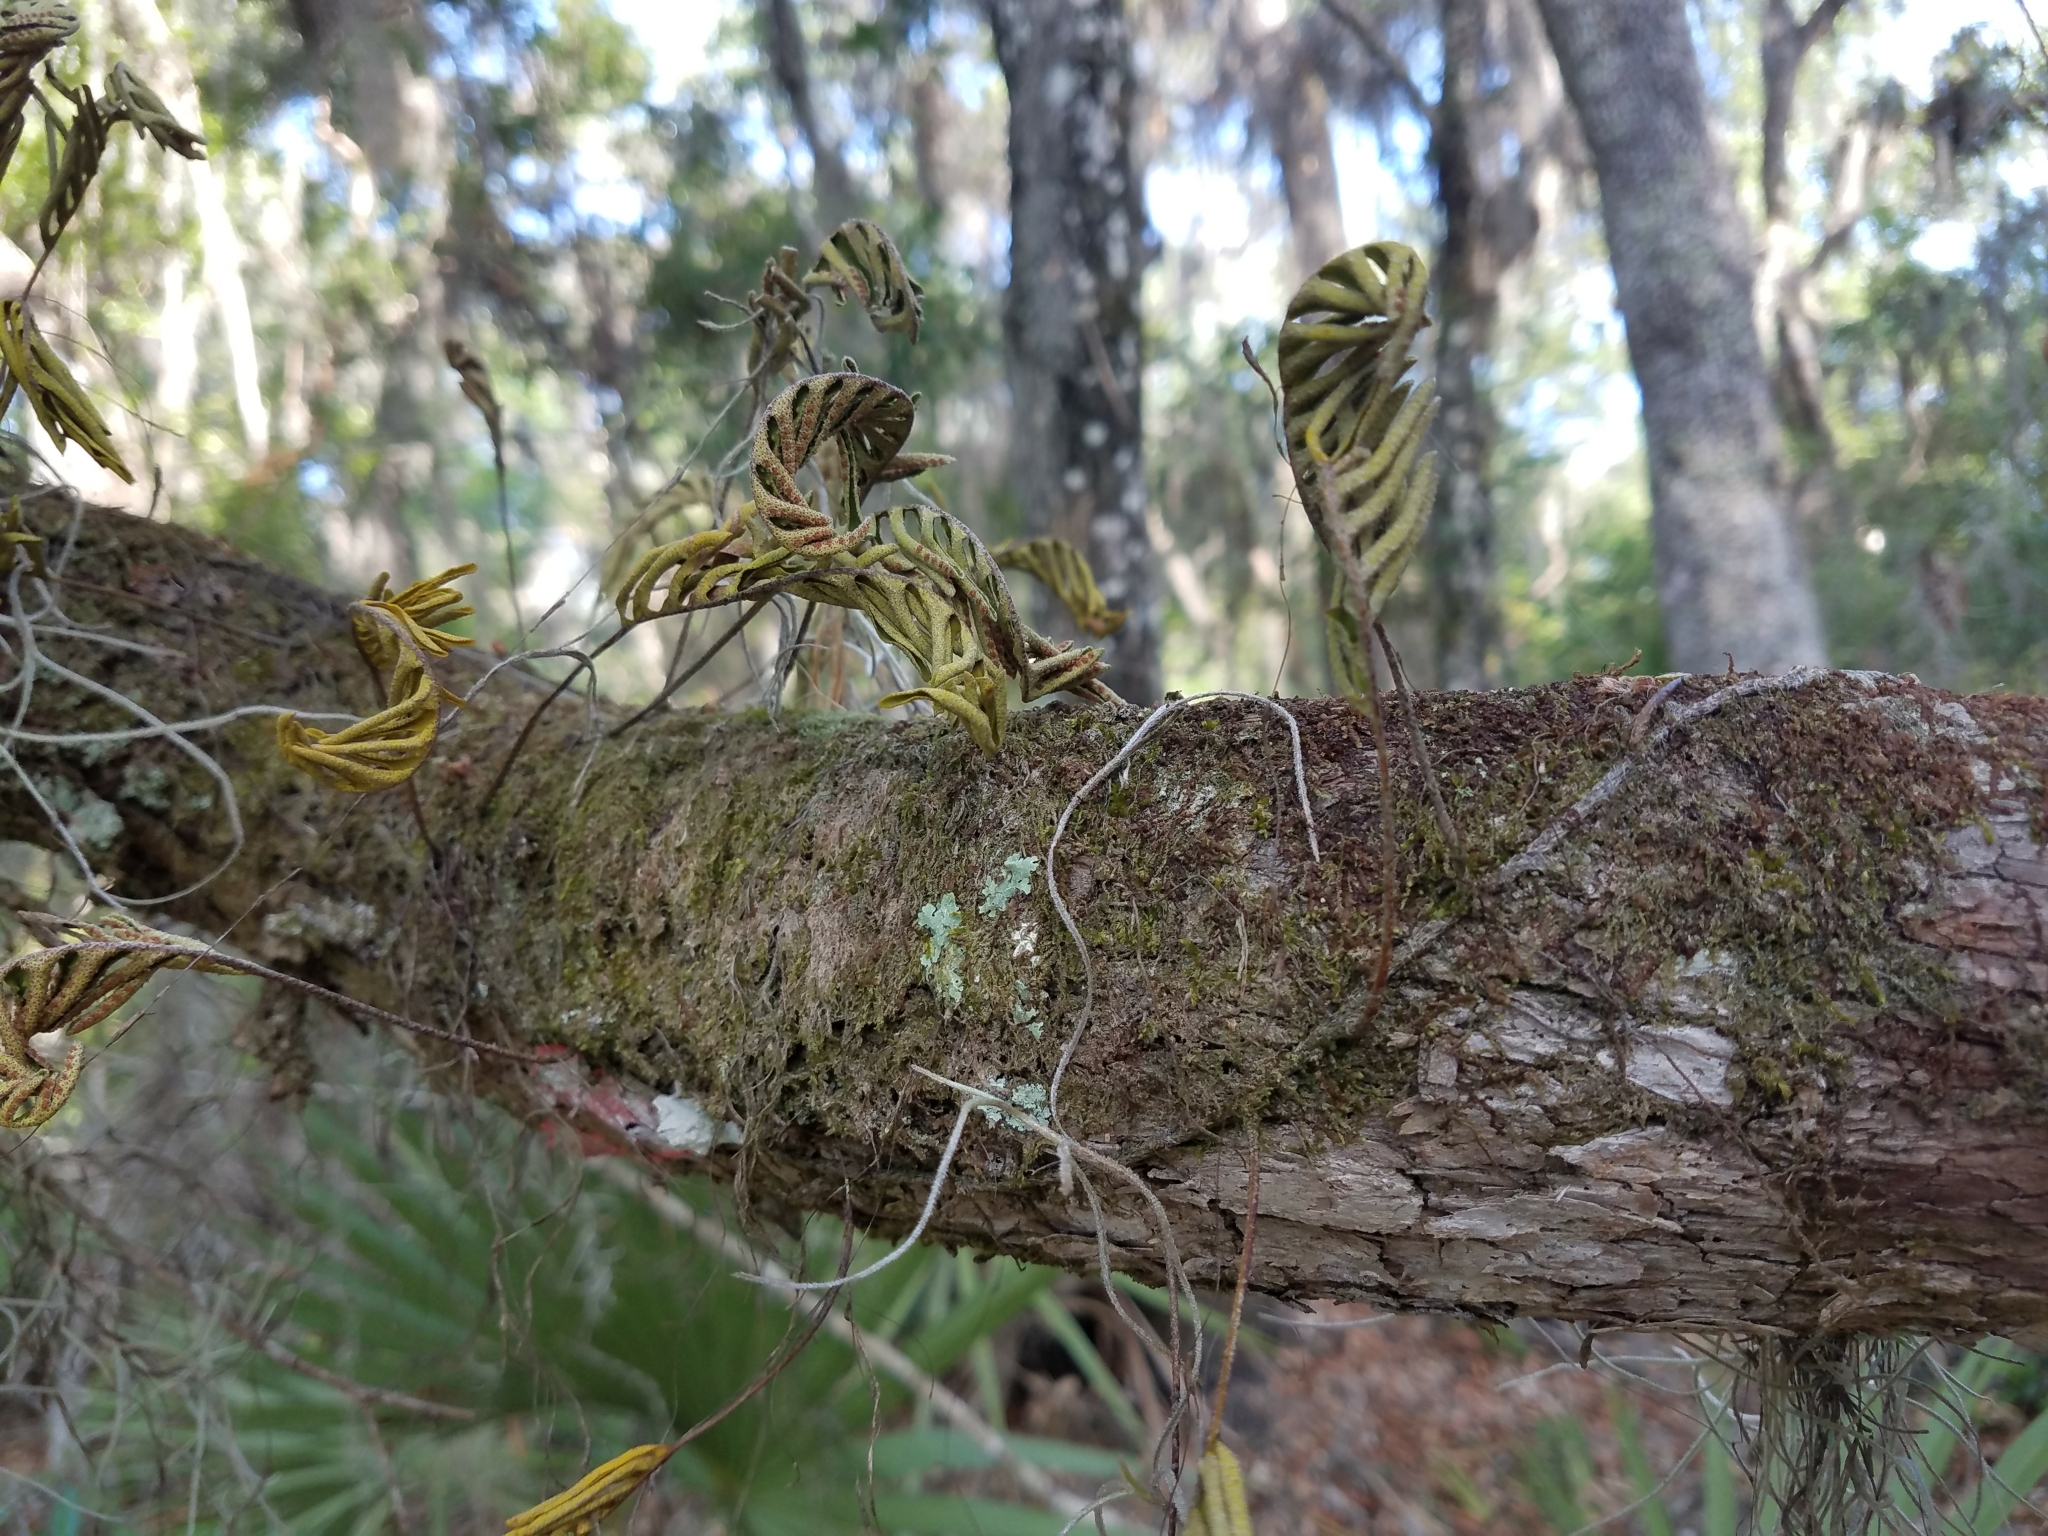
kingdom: Plantae
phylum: Tracheophyta
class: Polypodiopsida
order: Polypodiales
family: Polypodiaceae
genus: Pleopeltis
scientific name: Pleopeltis michauxiana
